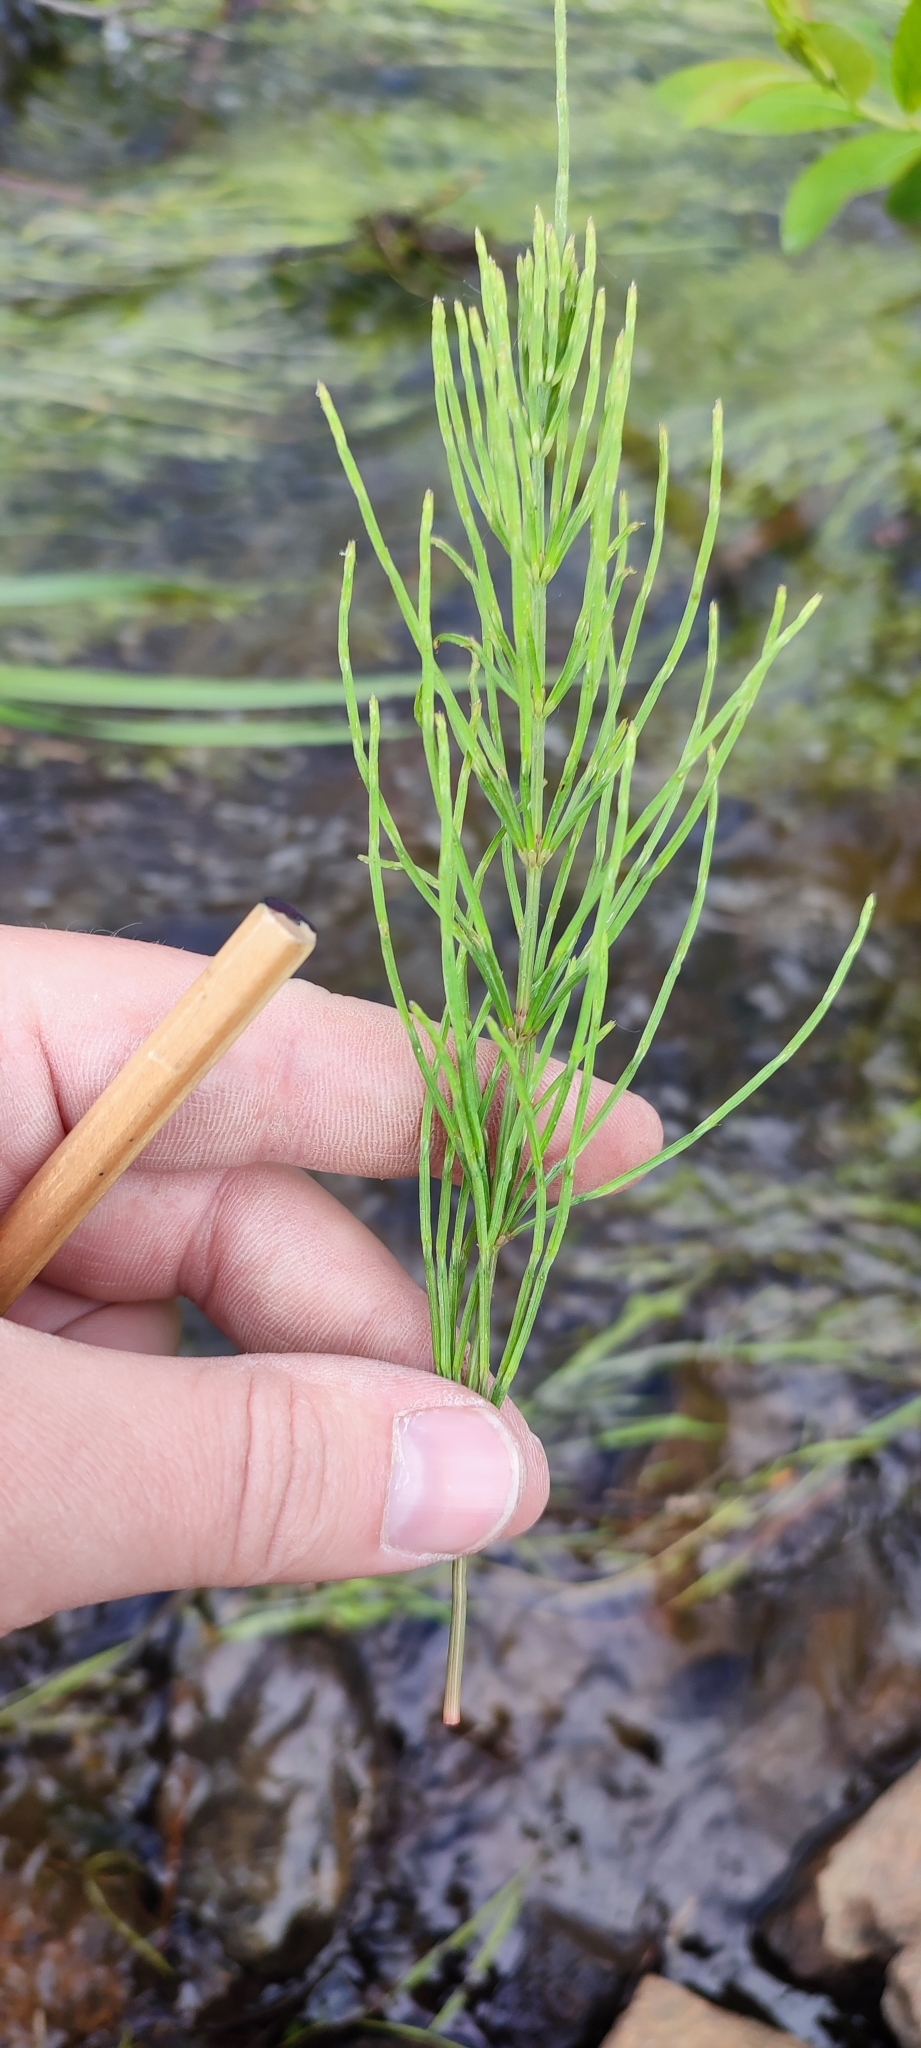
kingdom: Plantae
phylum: Tracheophyta
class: Polypodiopsida
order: Equisetales
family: Equisetaceae
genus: Equisetum
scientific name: Equisetum arvense
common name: Field horsetail
